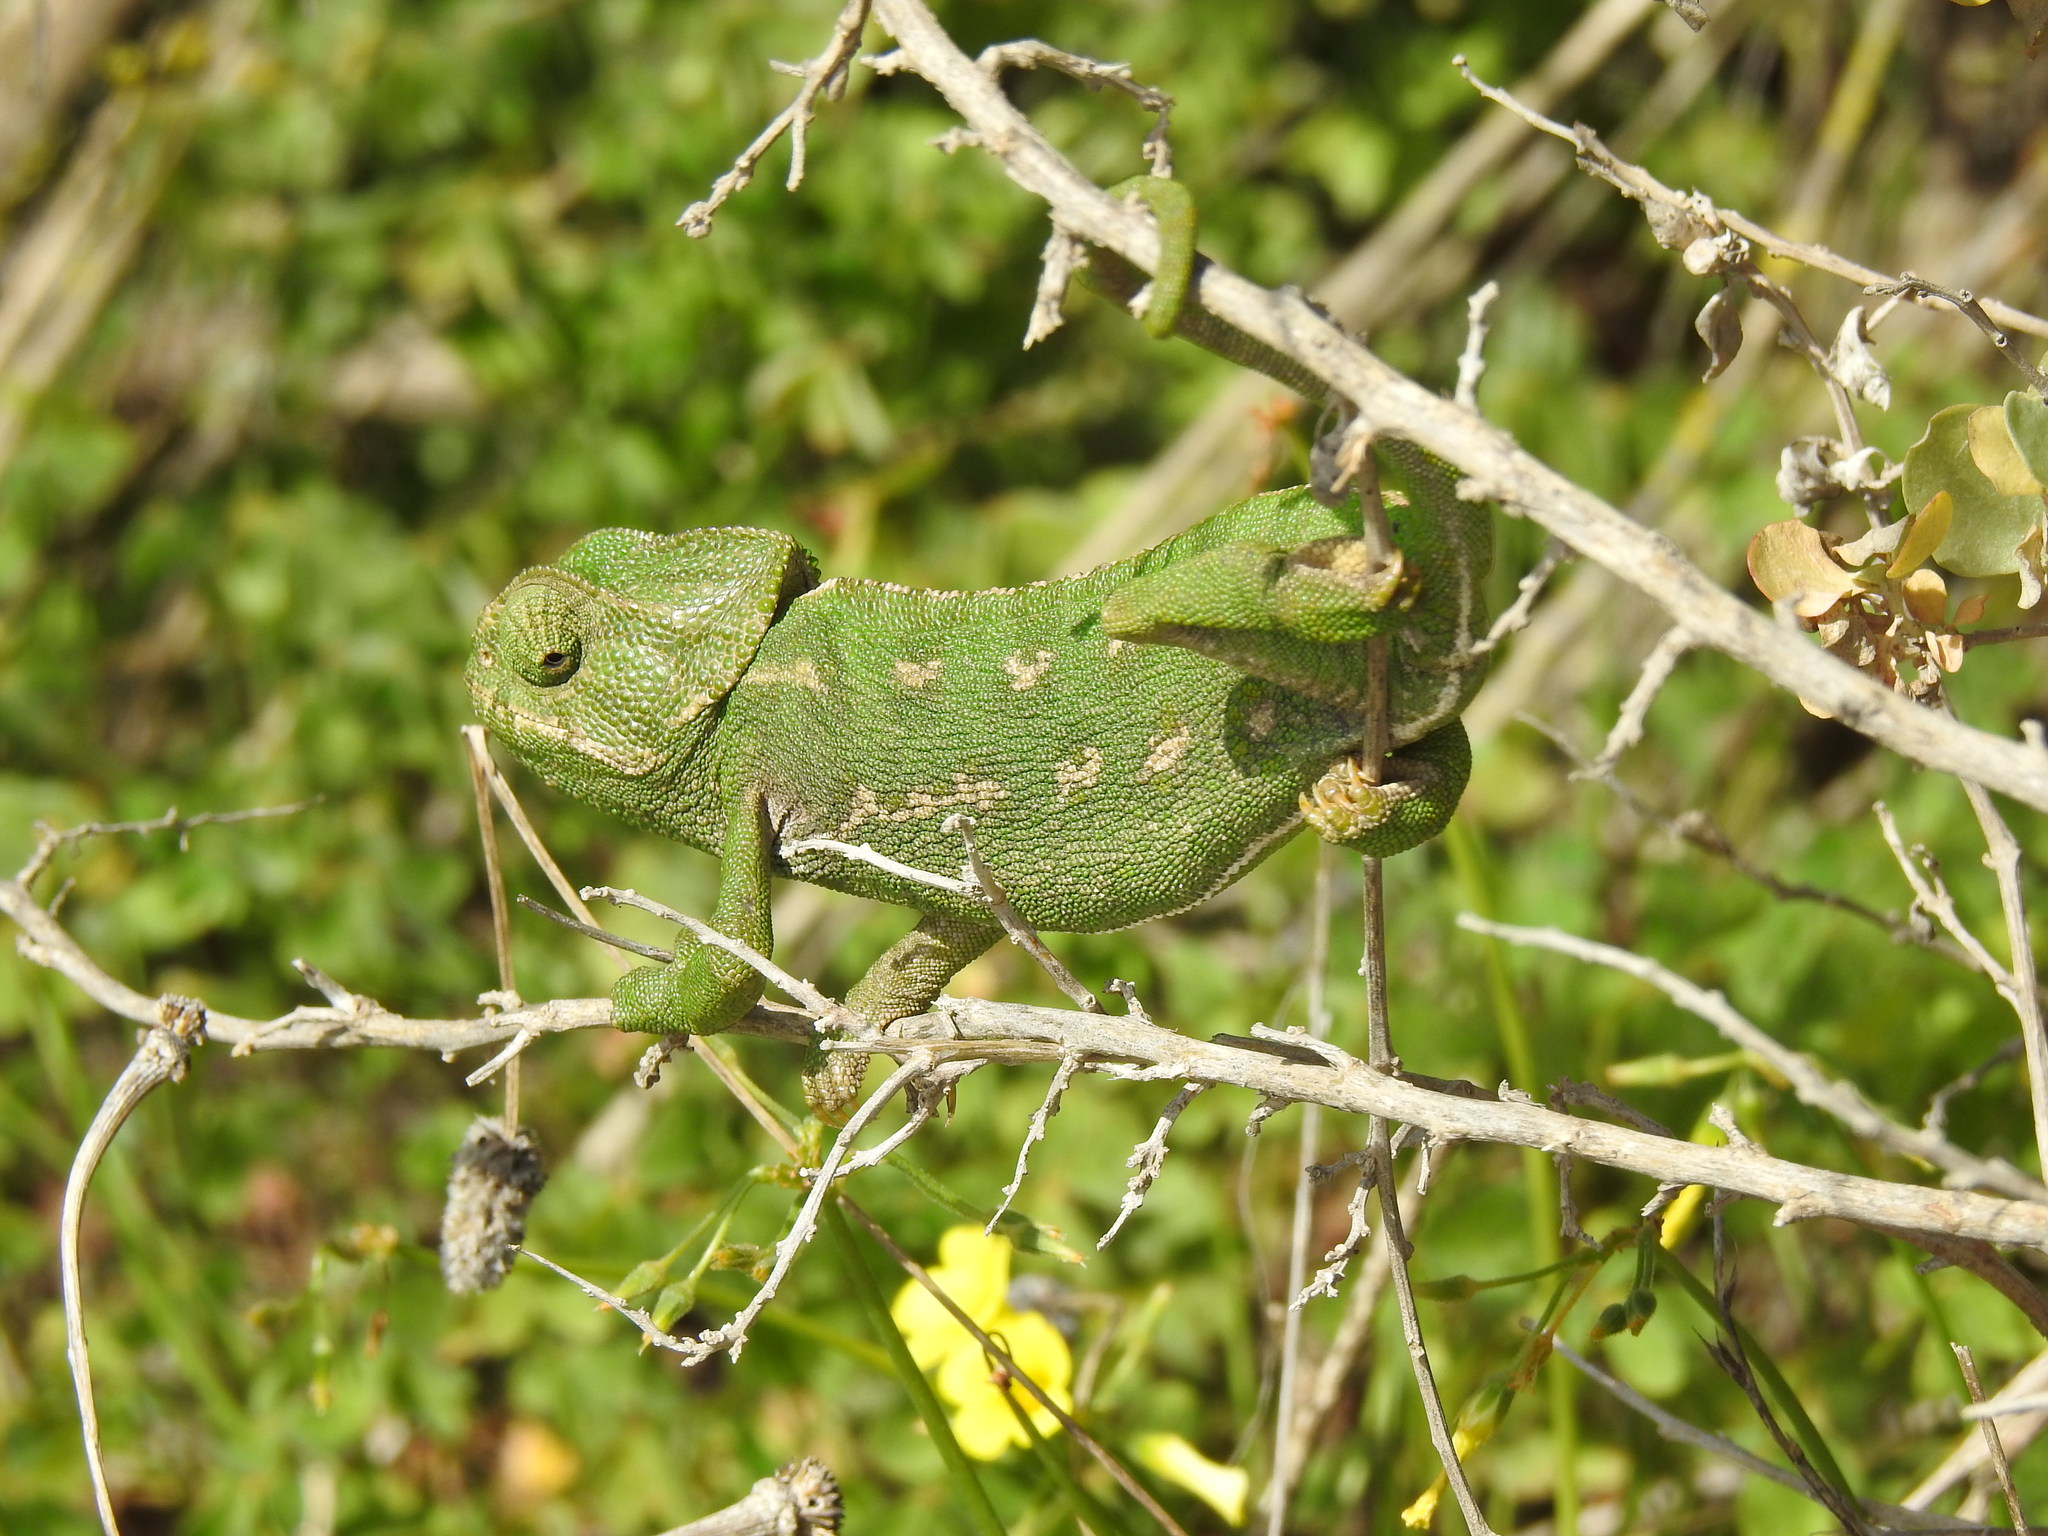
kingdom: Animalia
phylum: Chordata
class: Squamata
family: Chamaeleonidae
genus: Chamaeleo
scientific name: Chamaeleo chamaeleon
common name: Mediterranean chameleon
